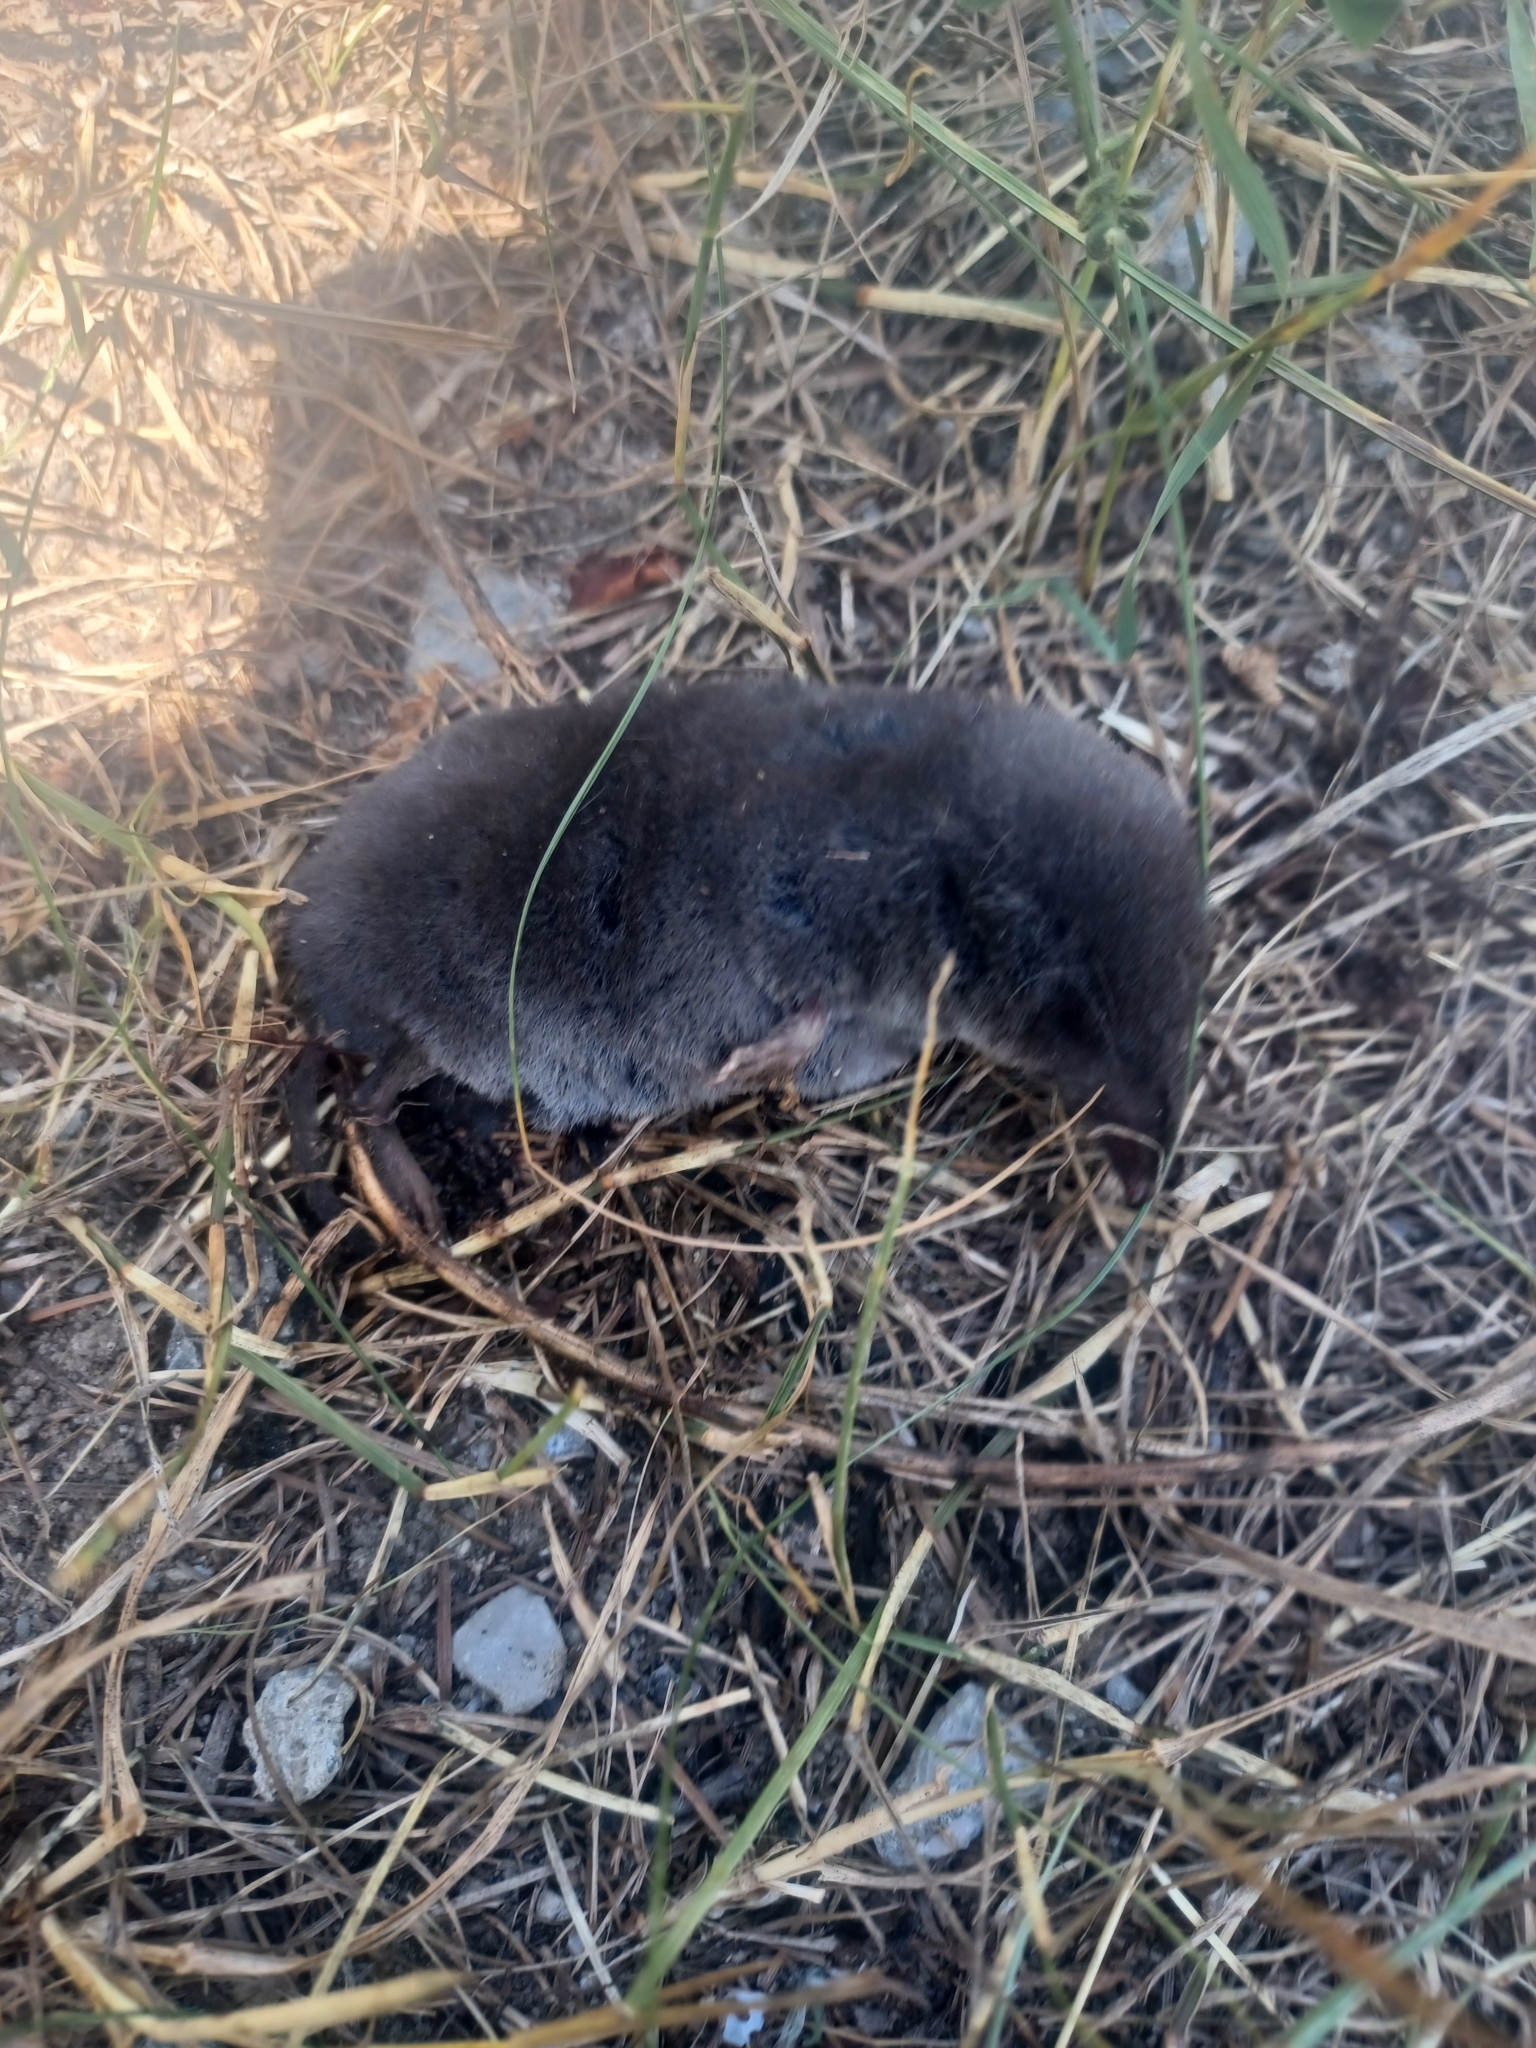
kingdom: Animalia
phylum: Chordata
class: Mammalia
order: Soricomorpha
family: Soricidae
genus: Blarina
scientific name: Blarina brevicauda
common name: Northern short-tailed shrew
